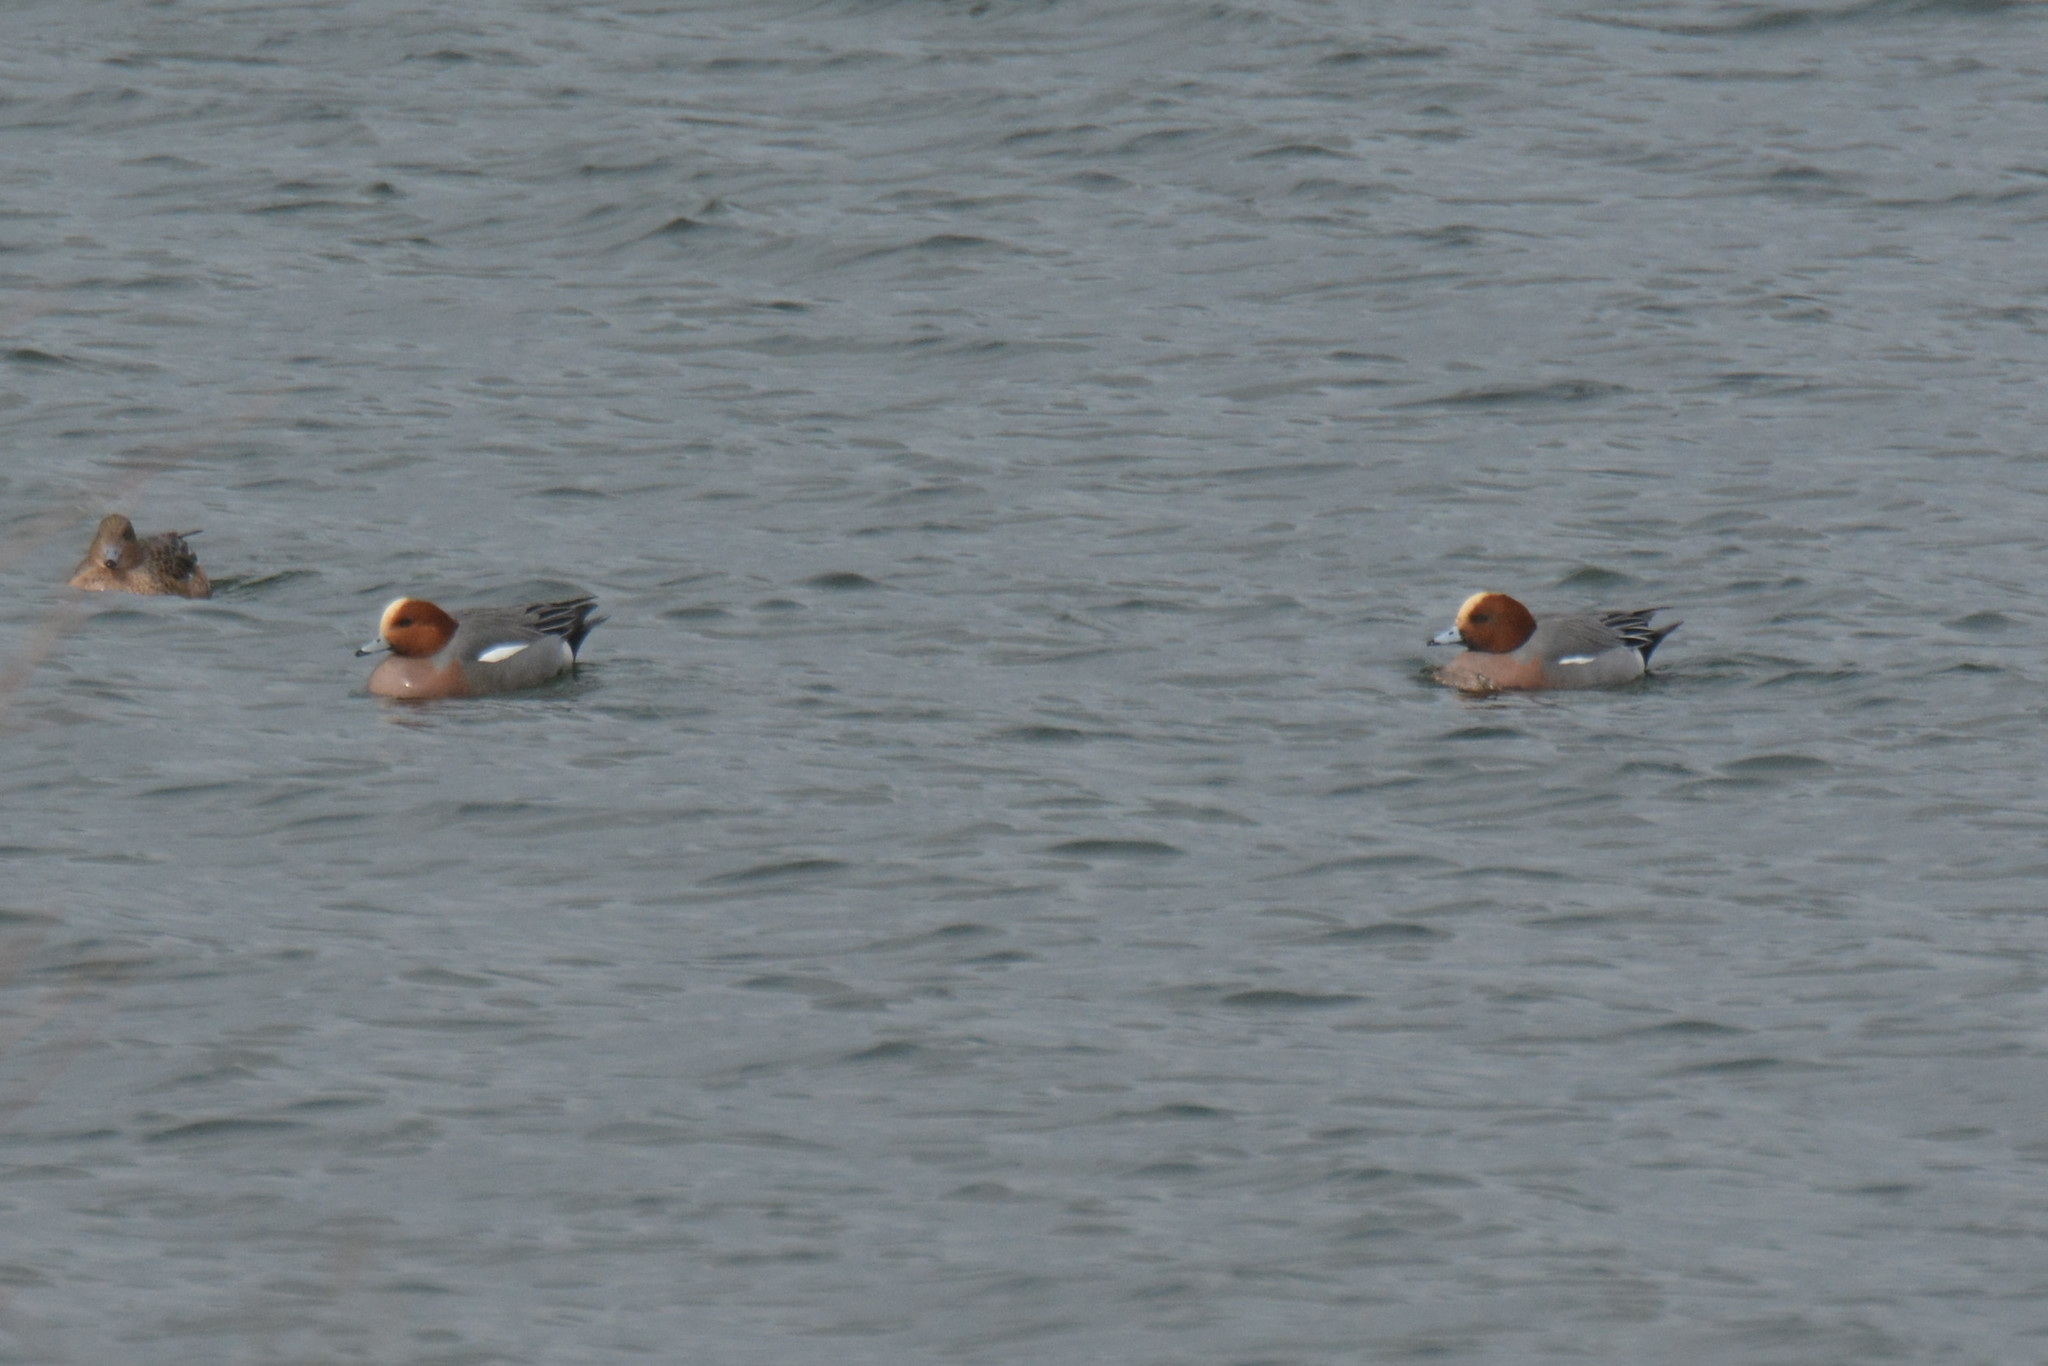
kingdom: Animalia
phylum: Chordata
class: Aves
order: Anseriformes
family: Anatidae
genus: Mareca
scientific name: Mareca penelope
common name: Eurasian wigeon
